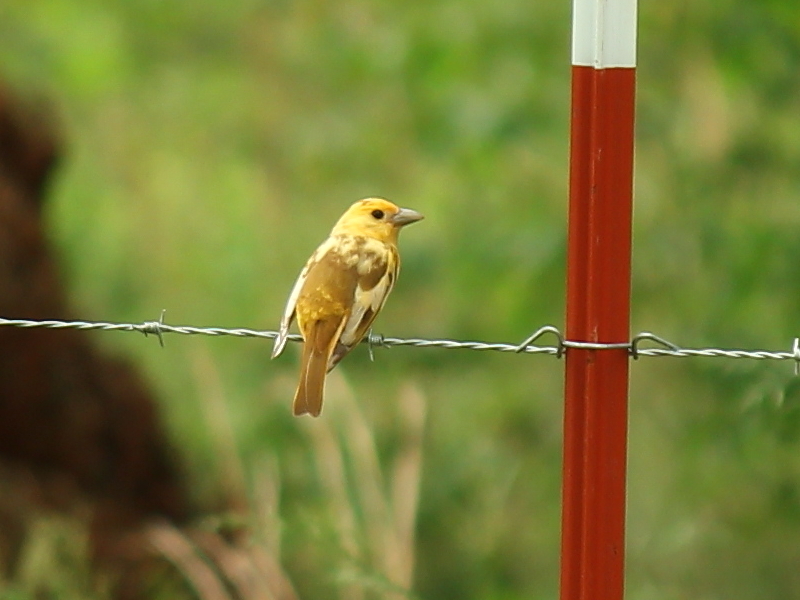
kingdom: Animalia
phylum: Chordata
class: Aves
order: Passeriformes
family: Cardinalidae
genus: Piranga
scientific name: Piranga rubra
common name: Summer tanager
